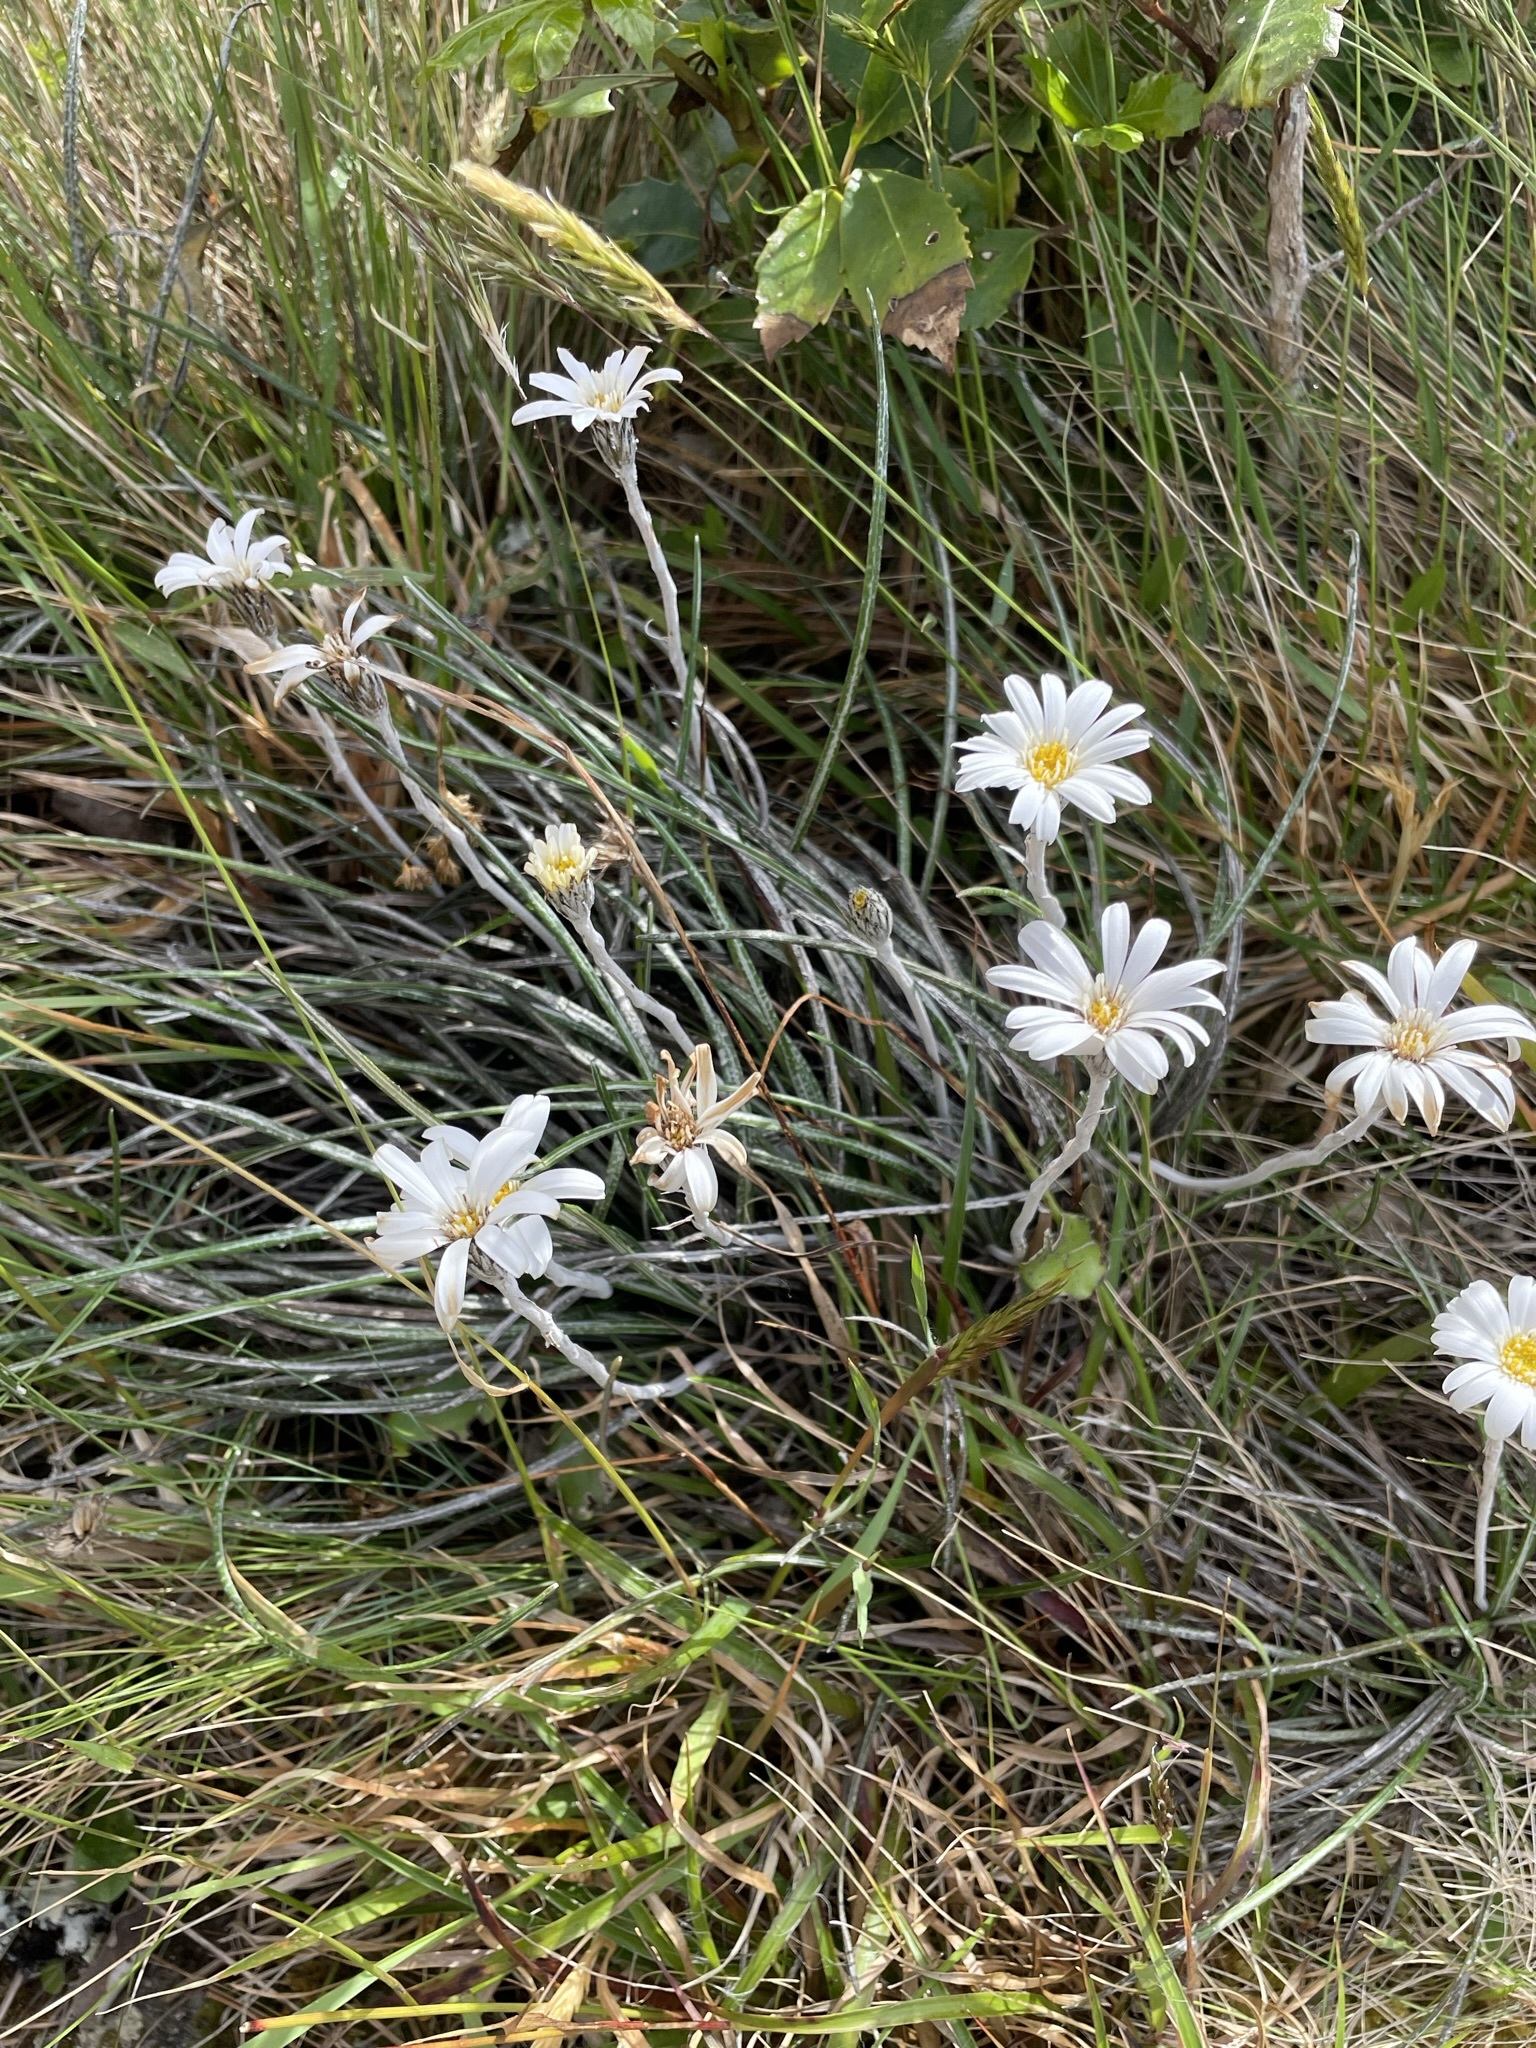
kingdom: Plantae
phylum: Tracheophyta
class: Magnoliopsida
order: Asterales
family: Asteraceae
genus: Celmisia
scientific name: Celmisia gracilenta
